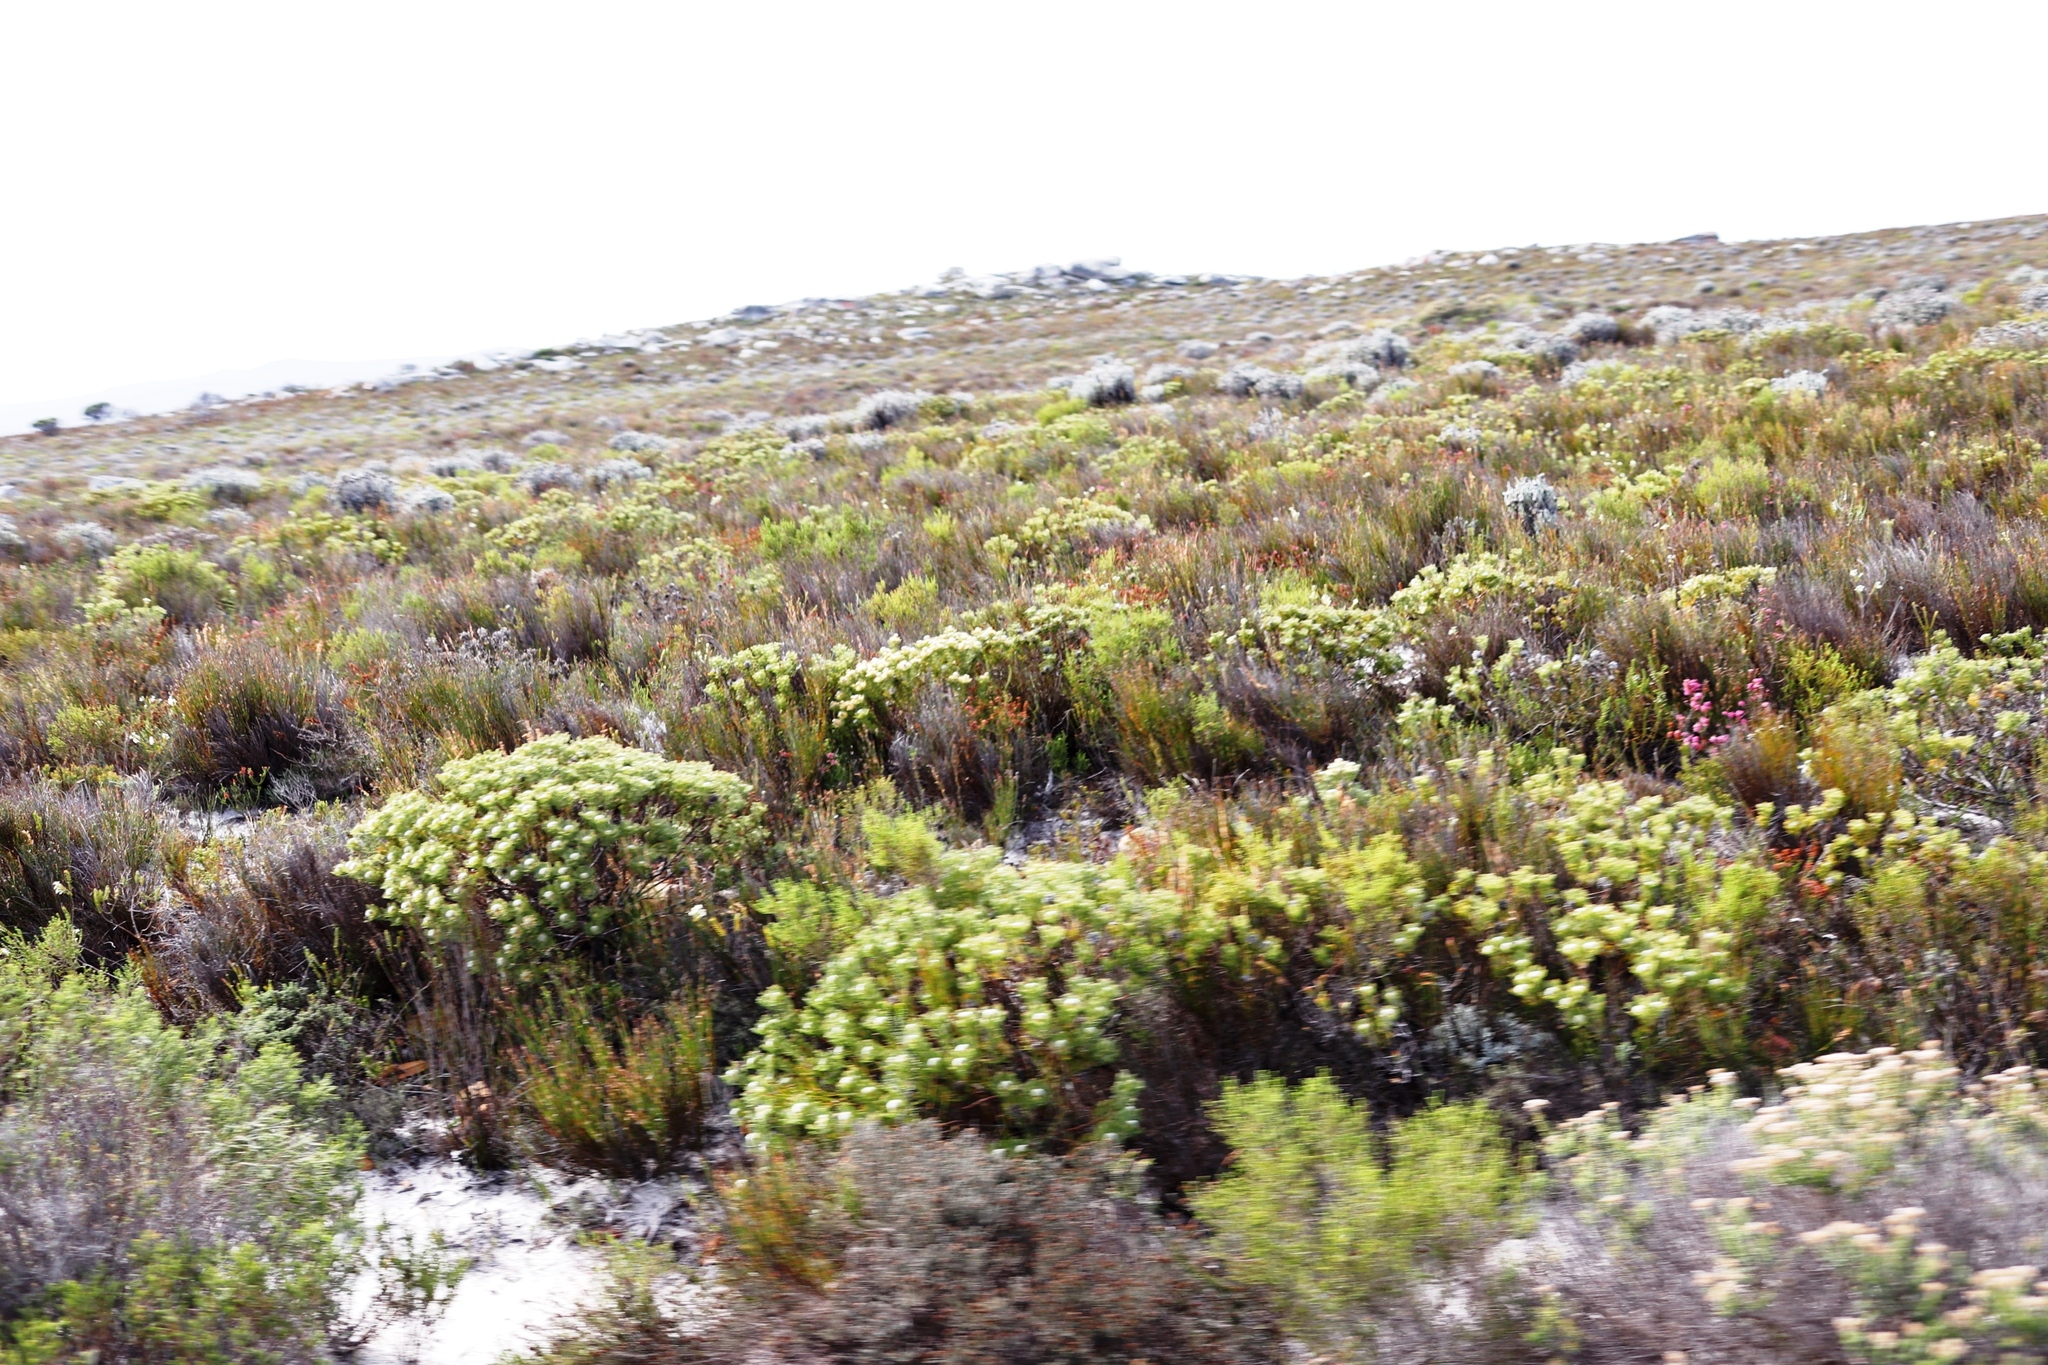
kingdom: Plantae
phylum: Tracheophyta
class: Magnoliopsida
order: Proteales
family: Proteaceae
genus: Serruria
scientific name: Serruria villosa
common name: Golden spiderhead
